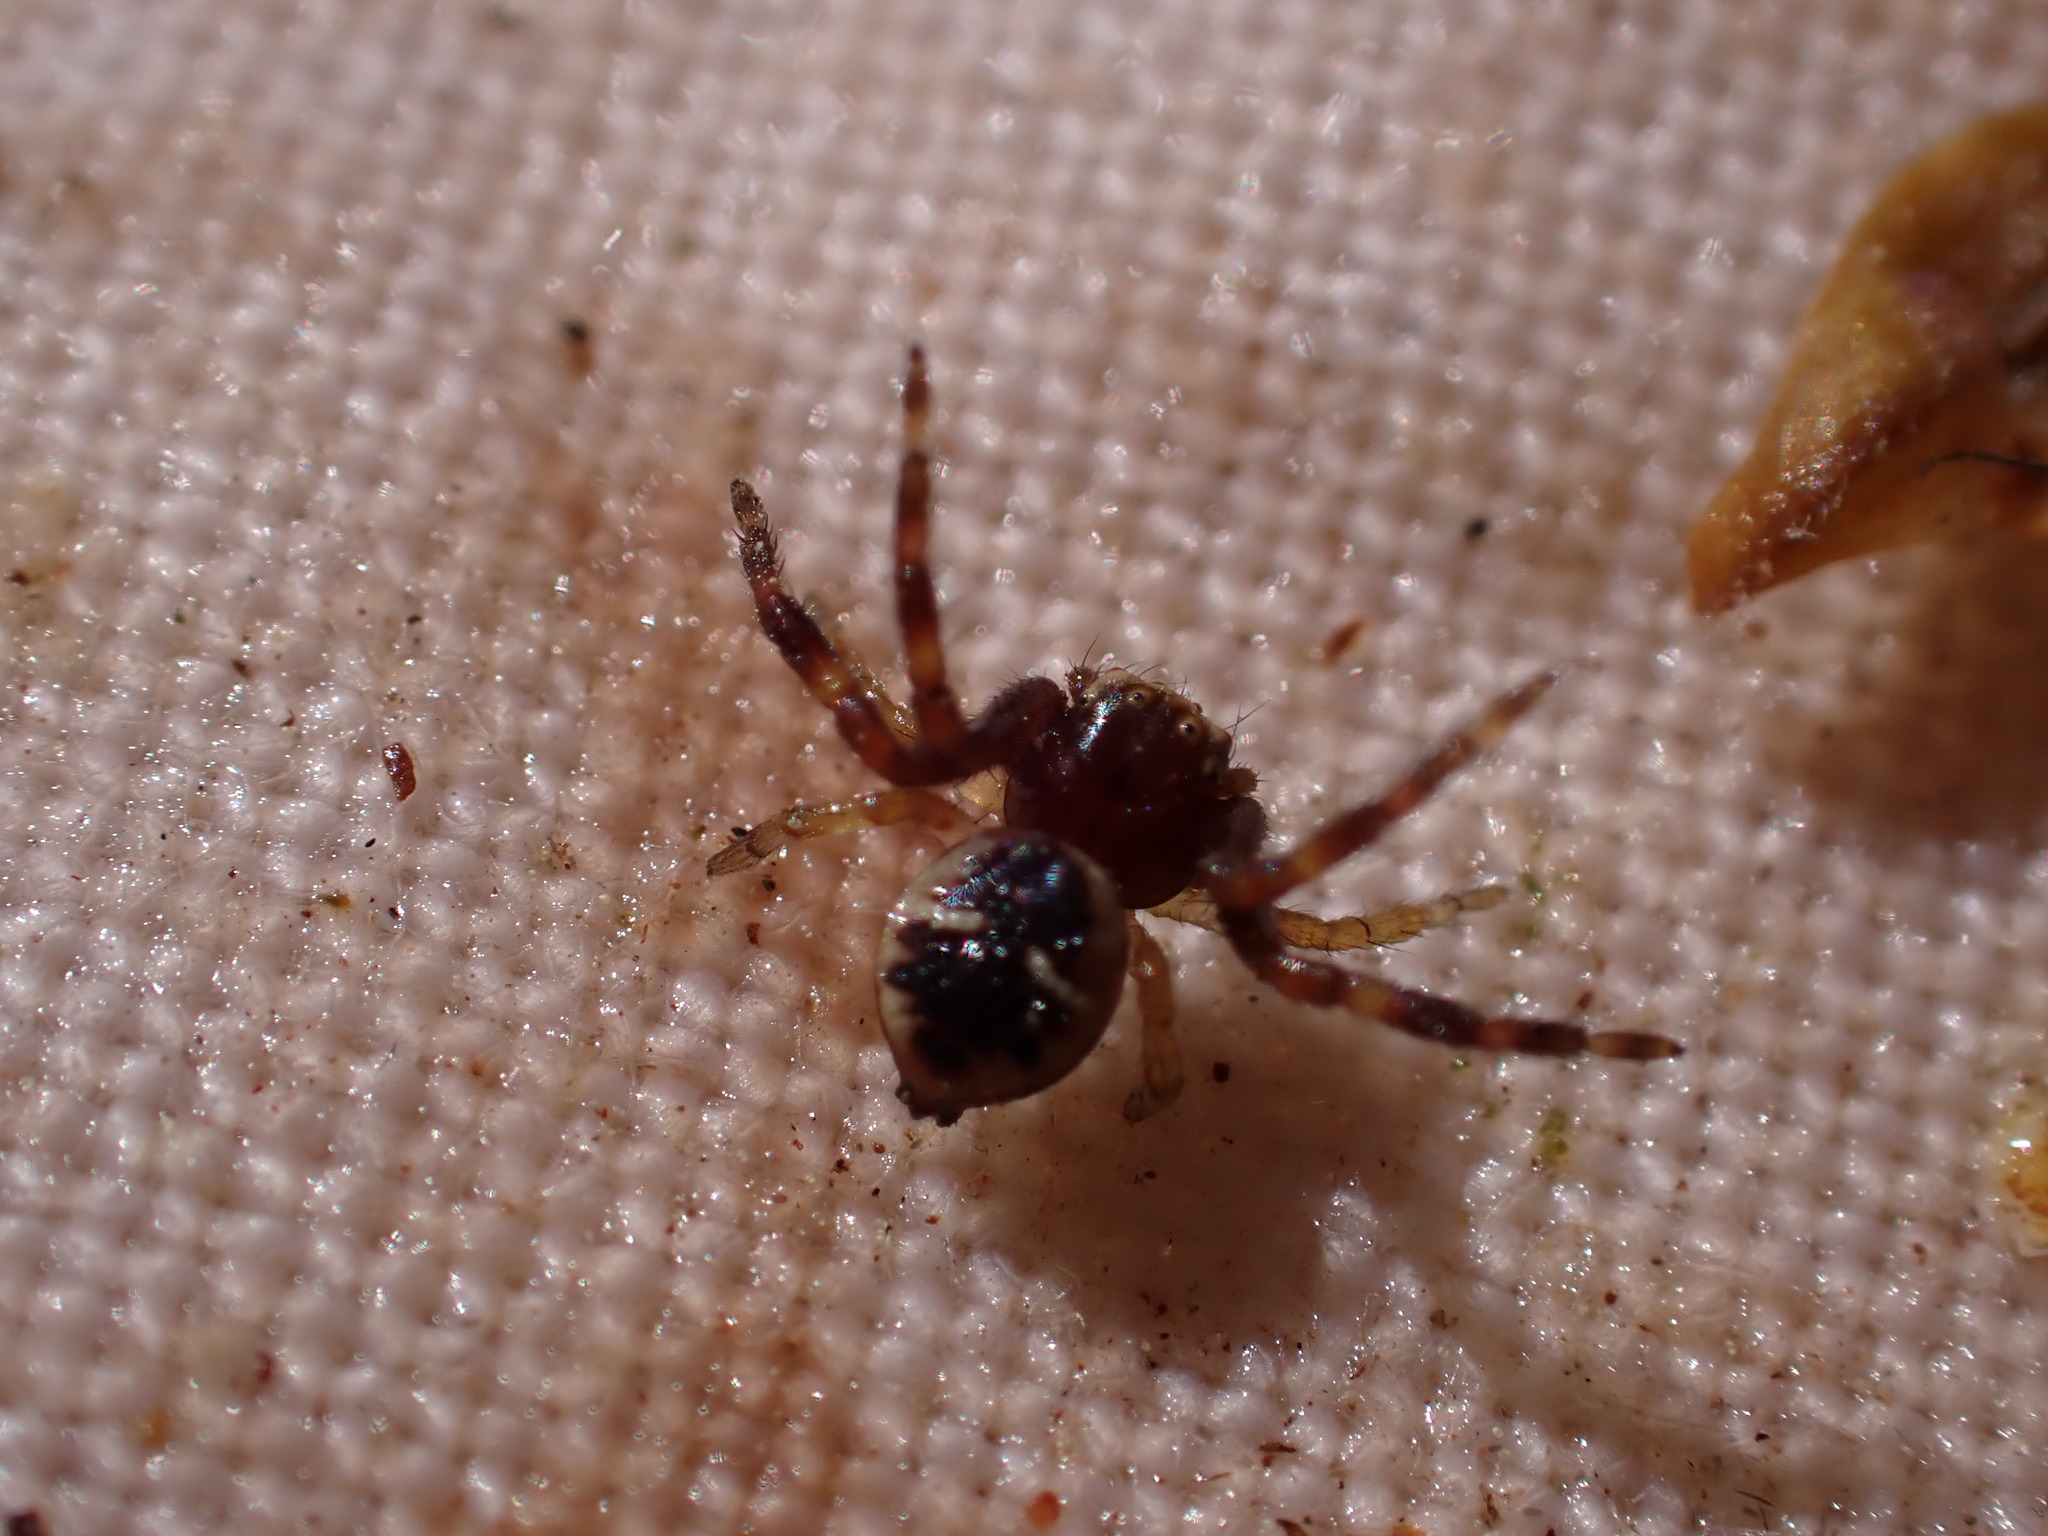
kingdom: Animalia
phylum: Arthropoda
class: Arachnida
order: Araneae
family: Thomisidae
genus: Synema
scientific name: Synema globosum
